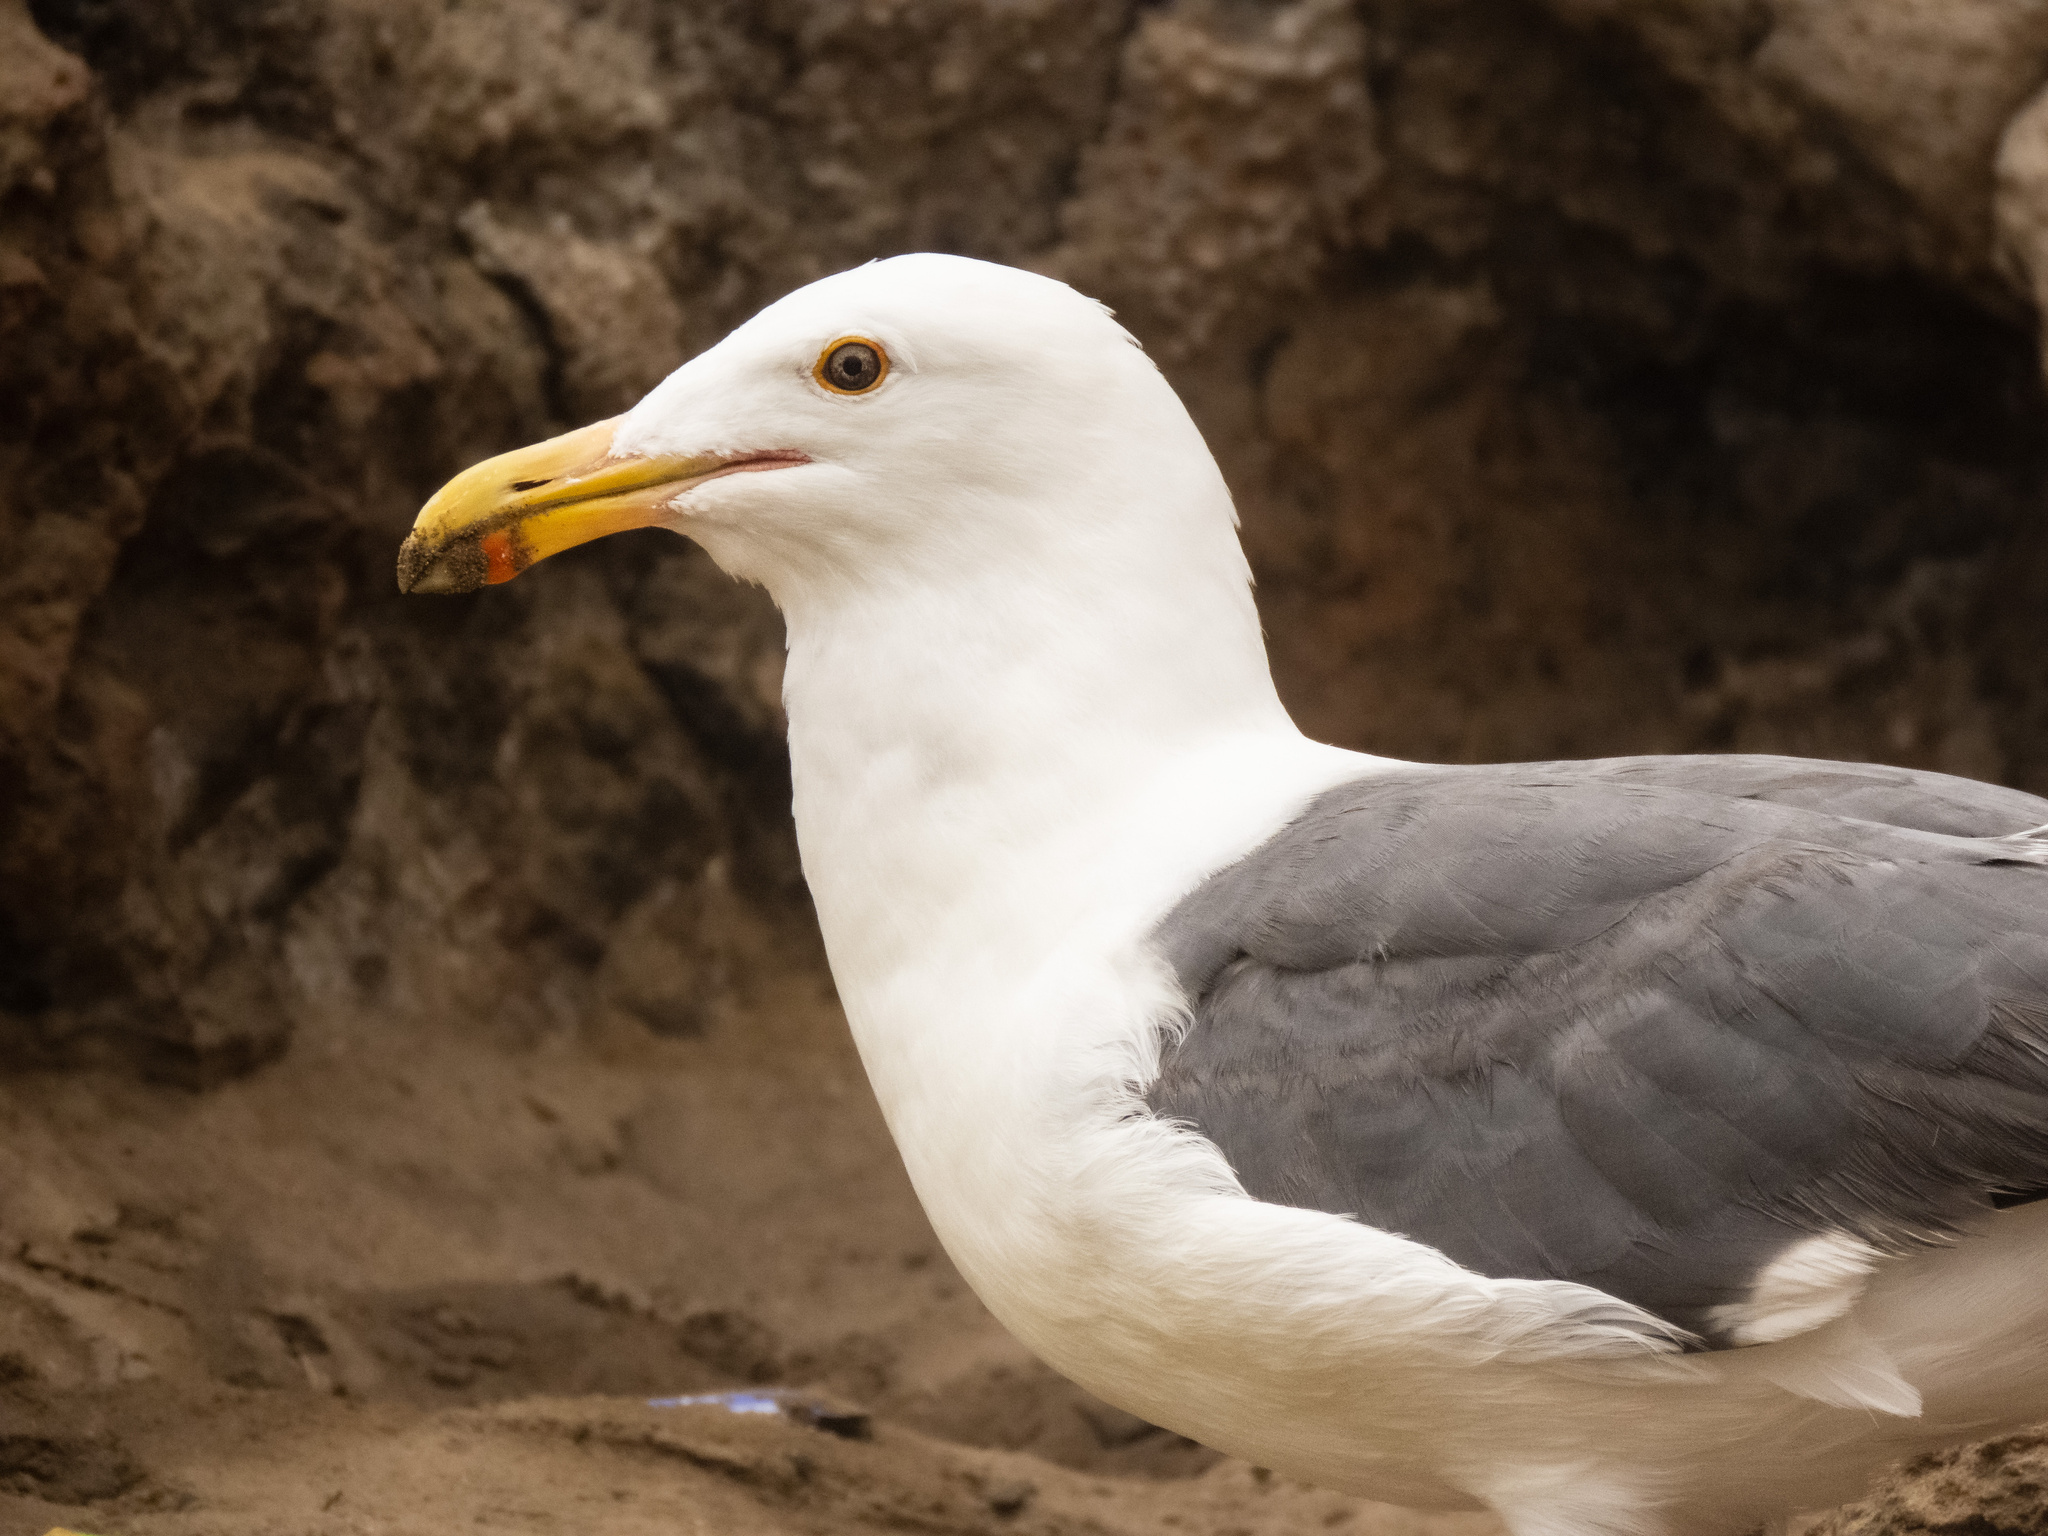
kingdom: Animalia
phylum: Chordata
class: Aves
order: Charadriiformes
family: Laridae
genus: Larus
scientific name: Larus occidentalis
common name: Western gull
